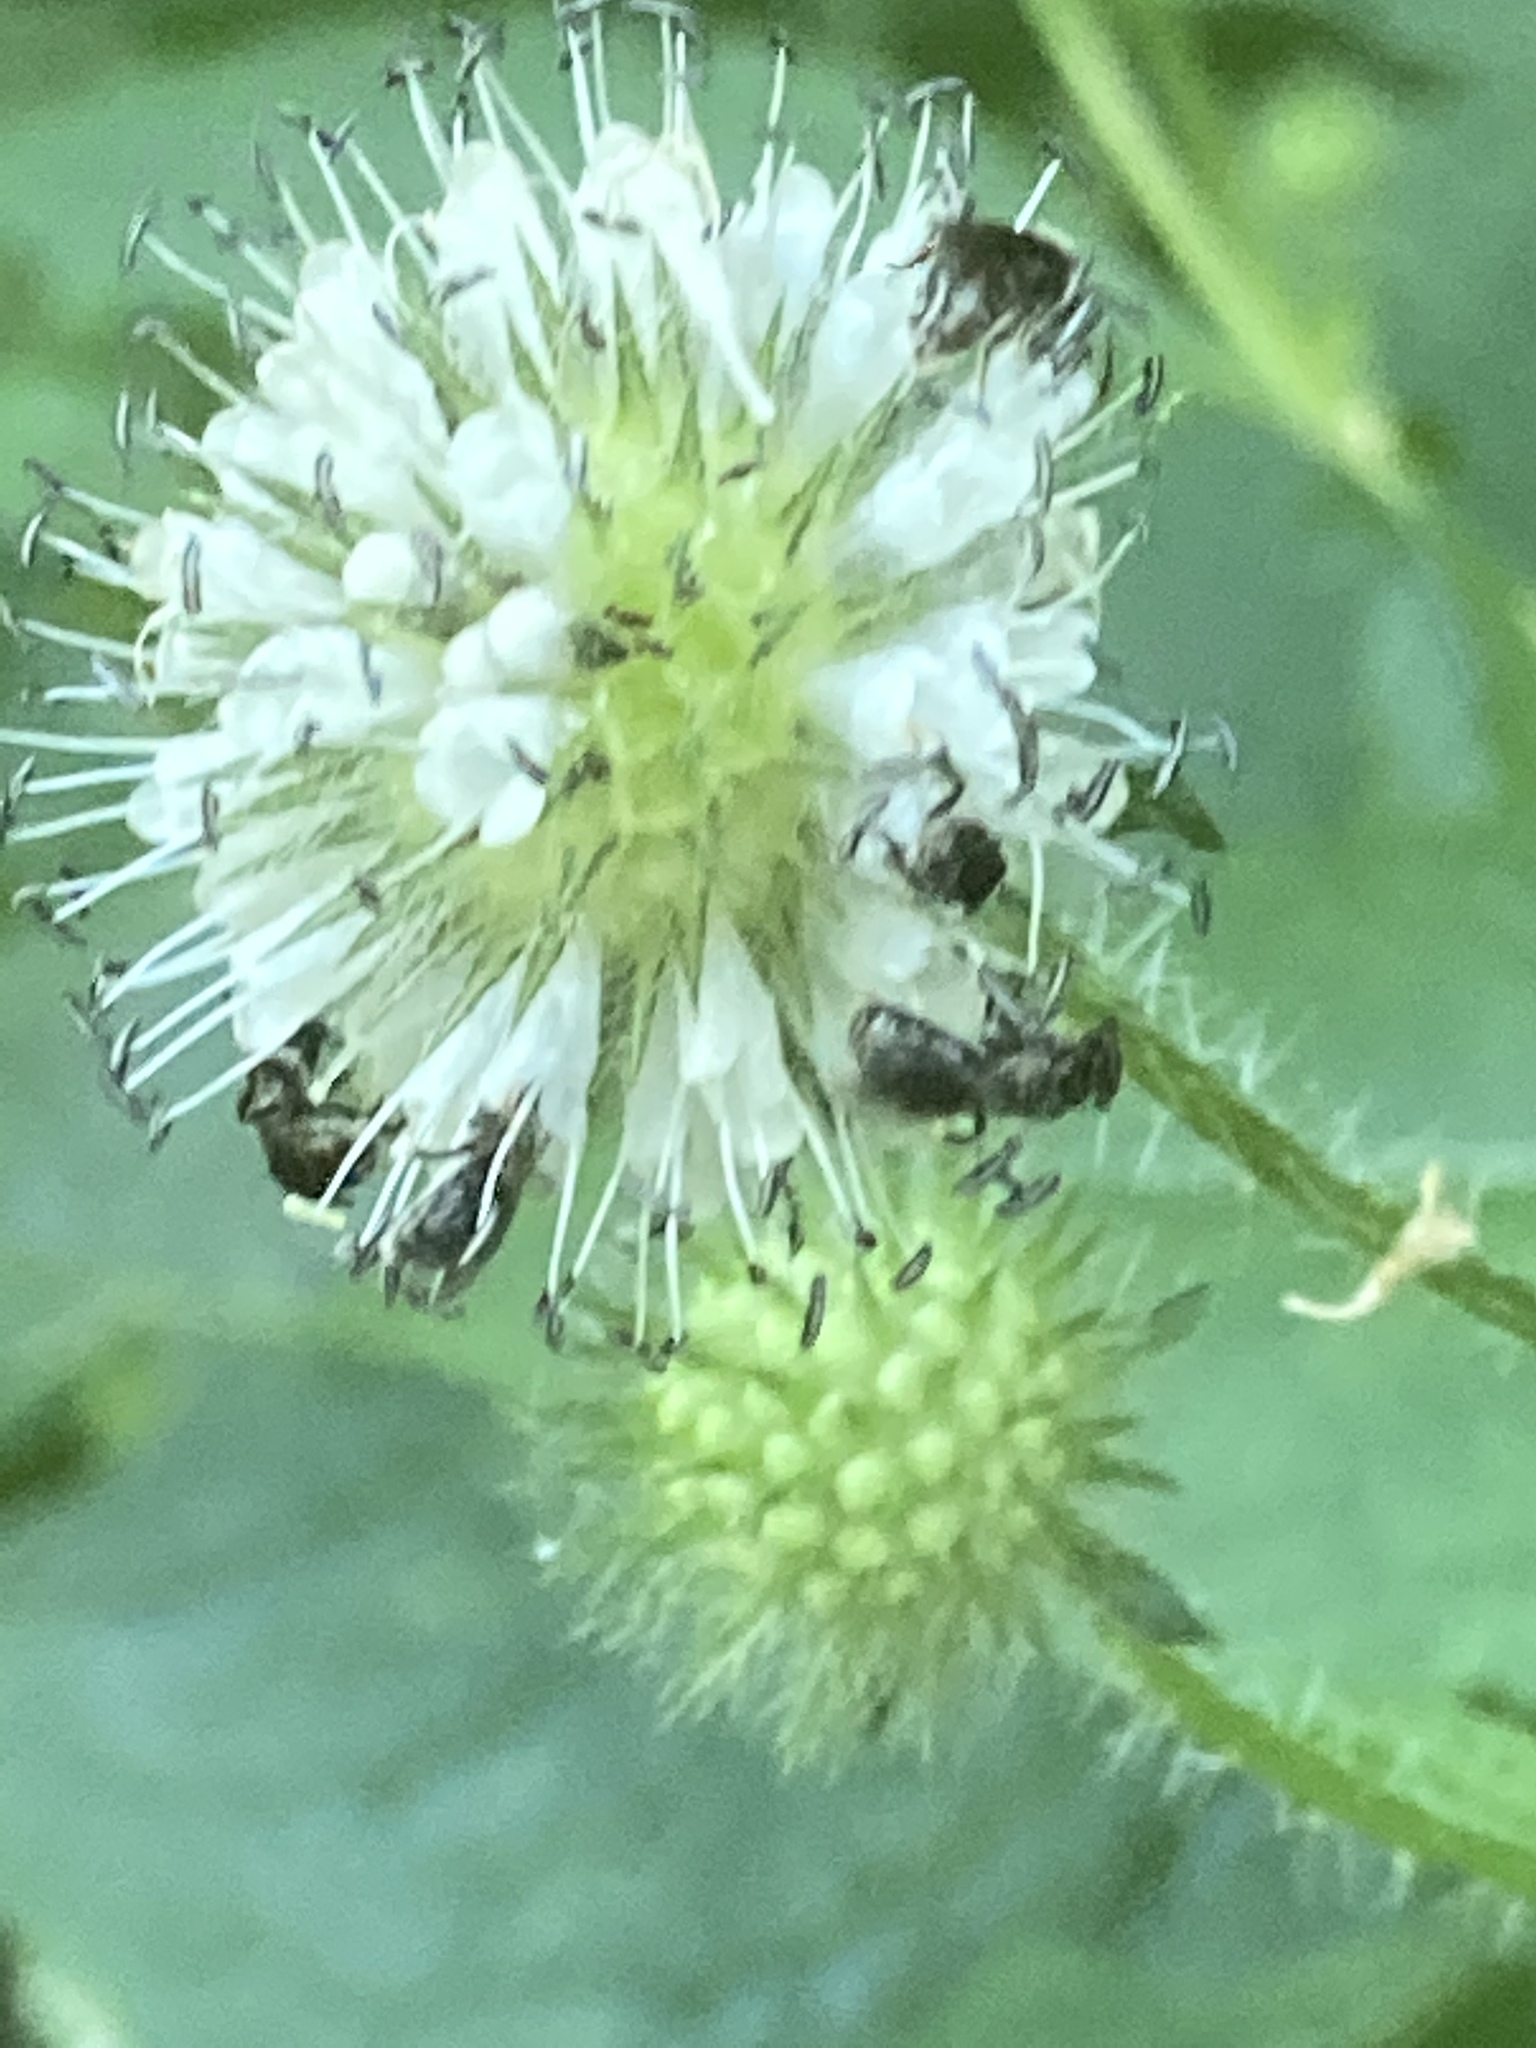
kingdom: Plantae
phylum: Tracheophyta
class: Magnoliopsida
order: Dipsacales
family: Caprifoliaceae
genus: Dipsacus
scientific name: Dipsacus pilosus
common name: Small teasel
